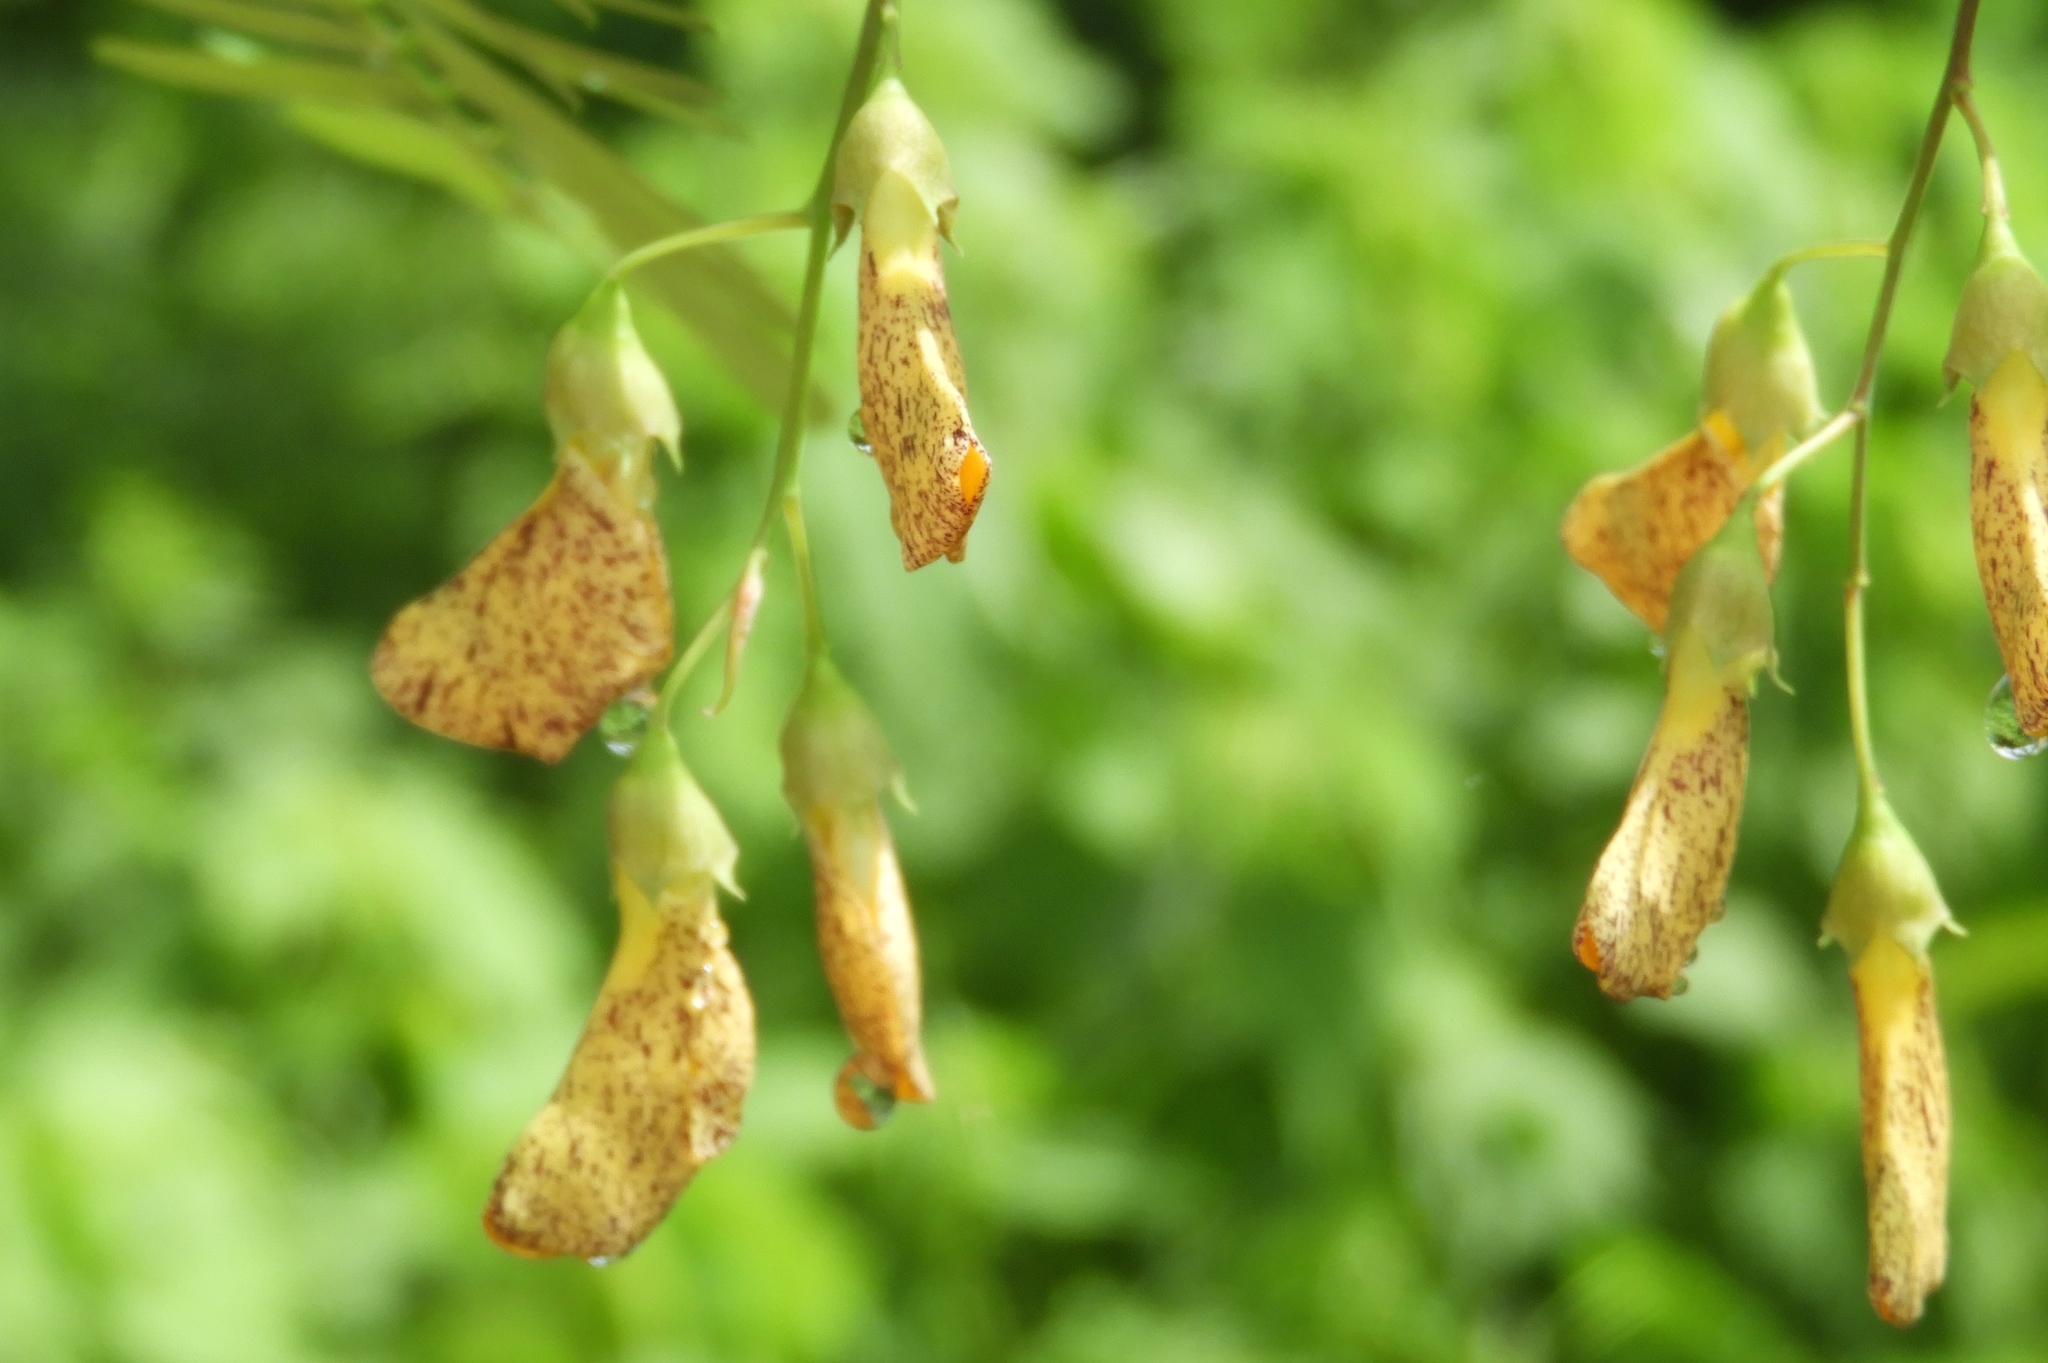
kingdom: Plantae
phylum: Tracheophyta
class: Magnoliopsida
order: Fabales
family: Fabaceae
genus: Sesbania
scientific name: Sesbania herbacea
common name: Bigpod sesbania
